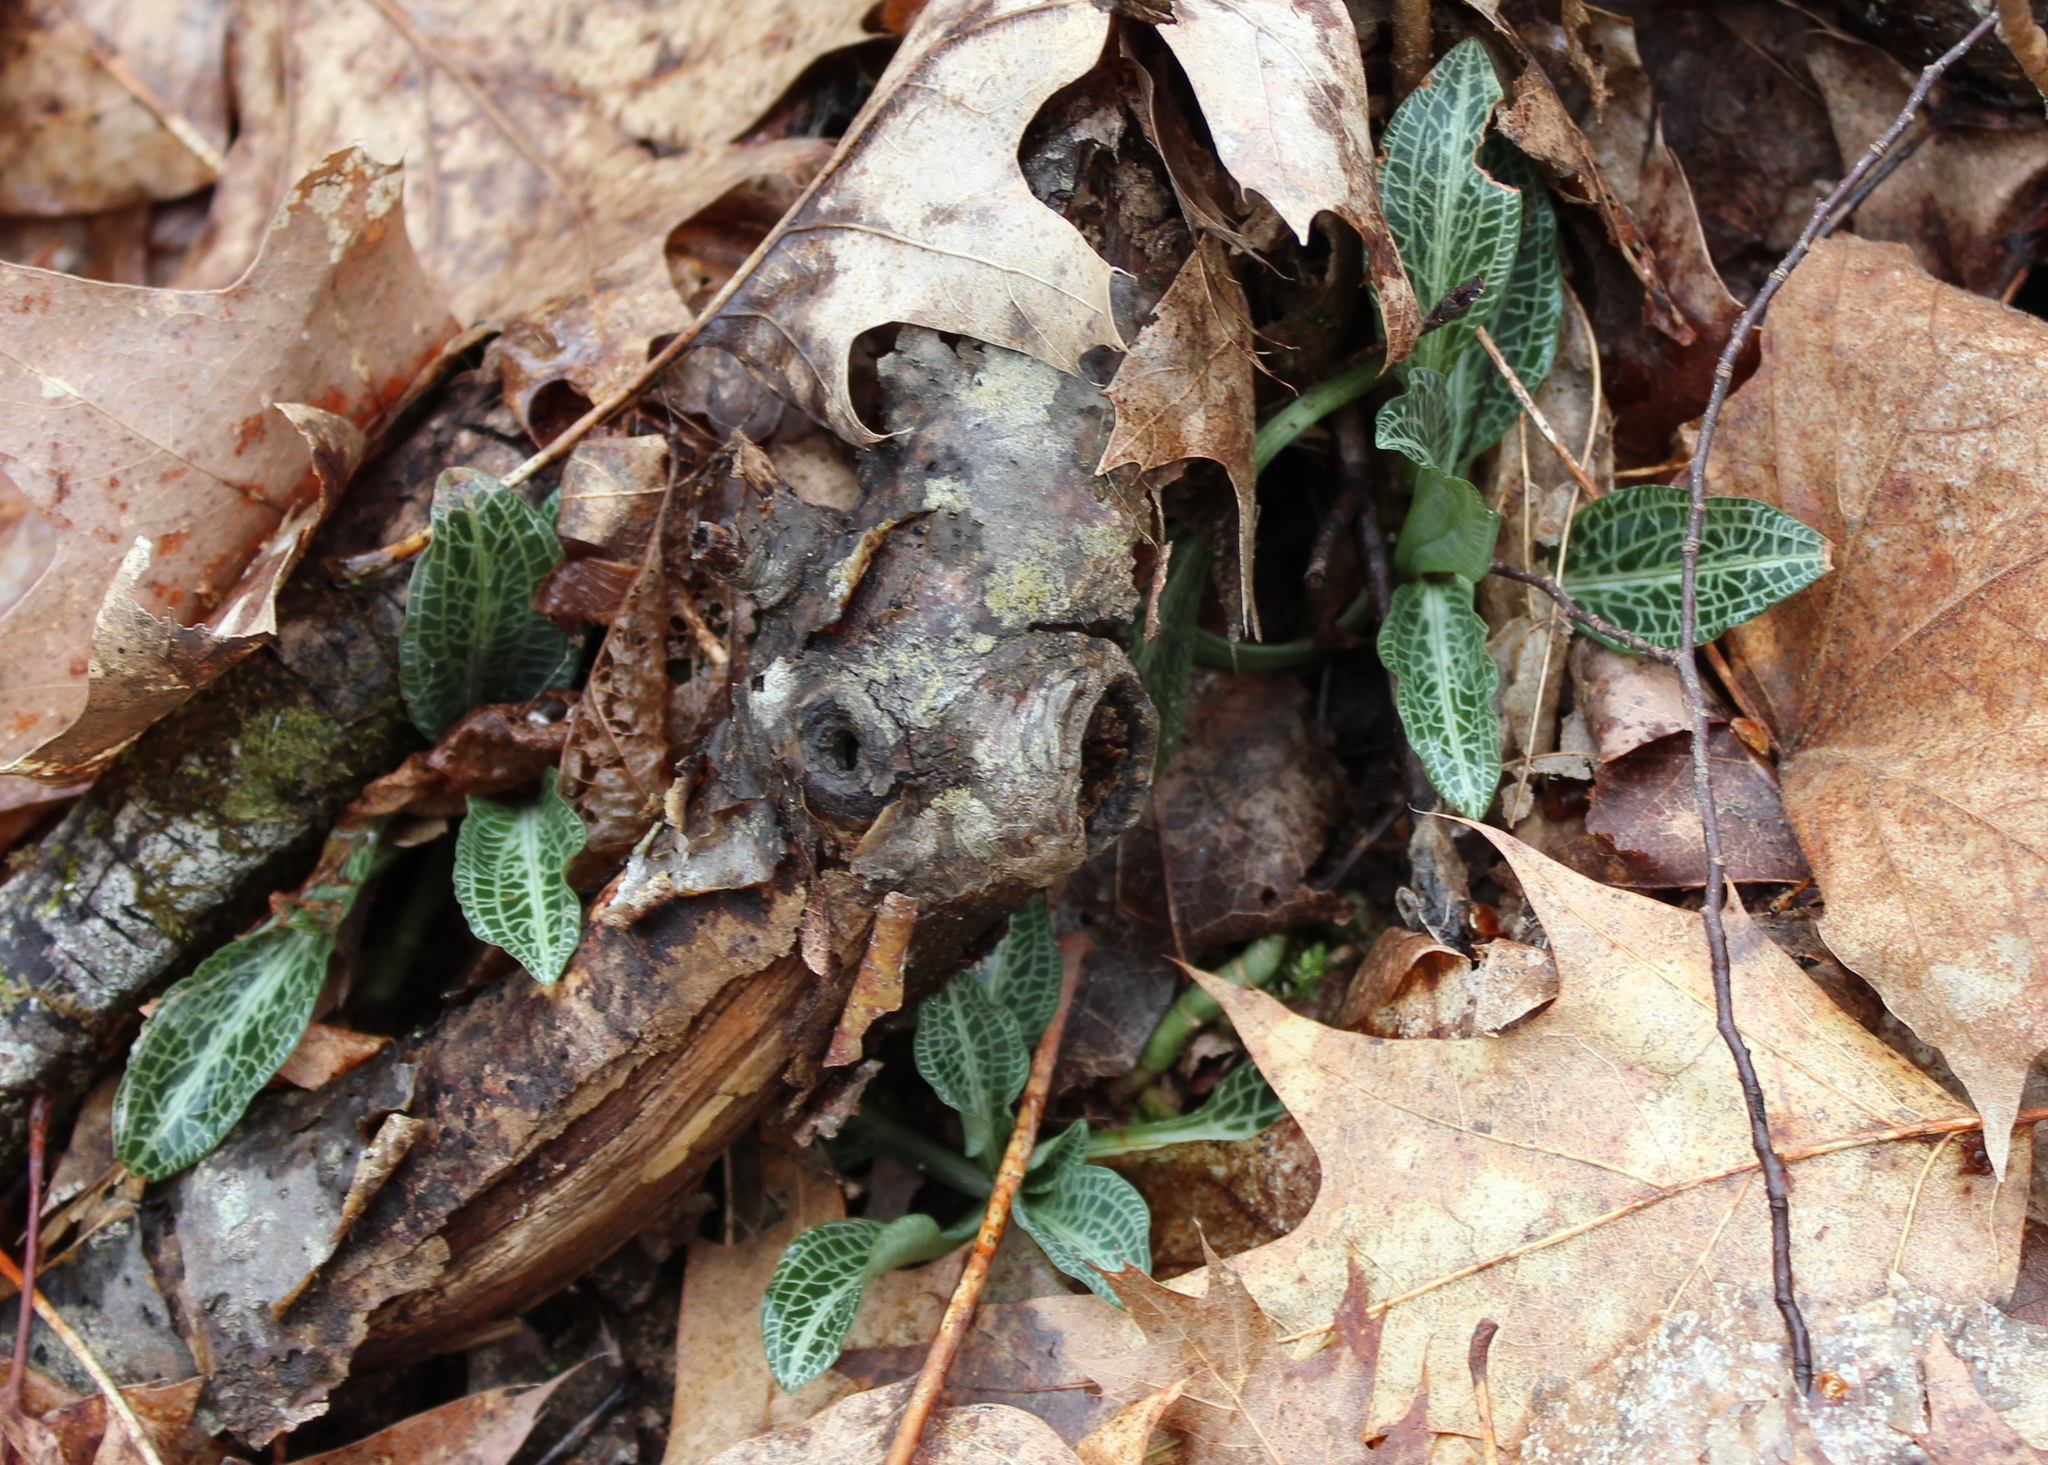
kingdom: Plantae
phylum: Tracheophyta
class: Liliopsida
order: Asparagales
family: Orchidaceae
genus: Goodyera
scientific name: Goodyera pubescens
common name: Downy rattlesnake-plantain
